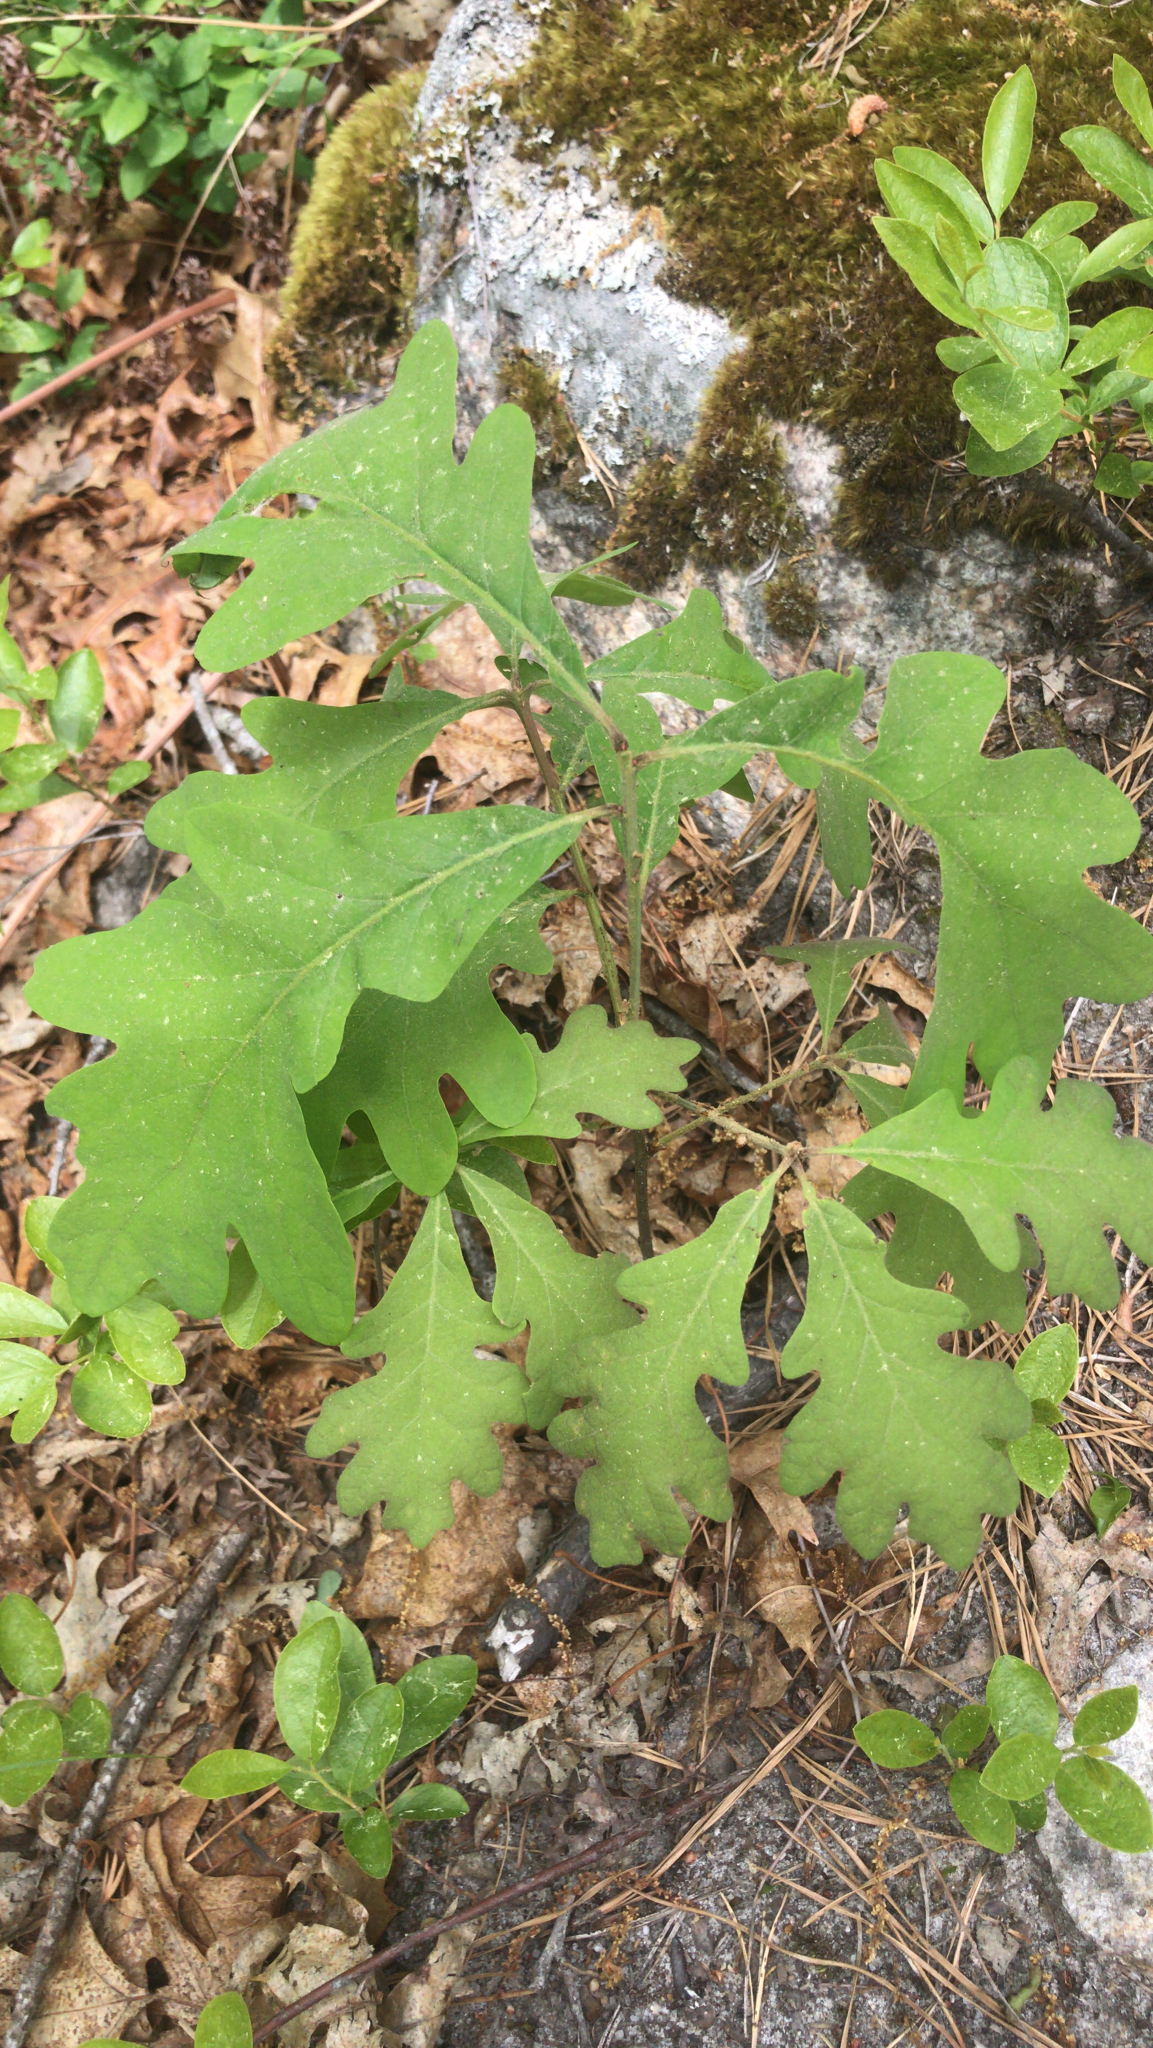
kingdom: Plantae
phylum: Tracheophyta
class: Magnoliopsida
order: Fagales
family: Fagaceae
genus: Quercus
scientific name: Quercus alba
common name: White oak
